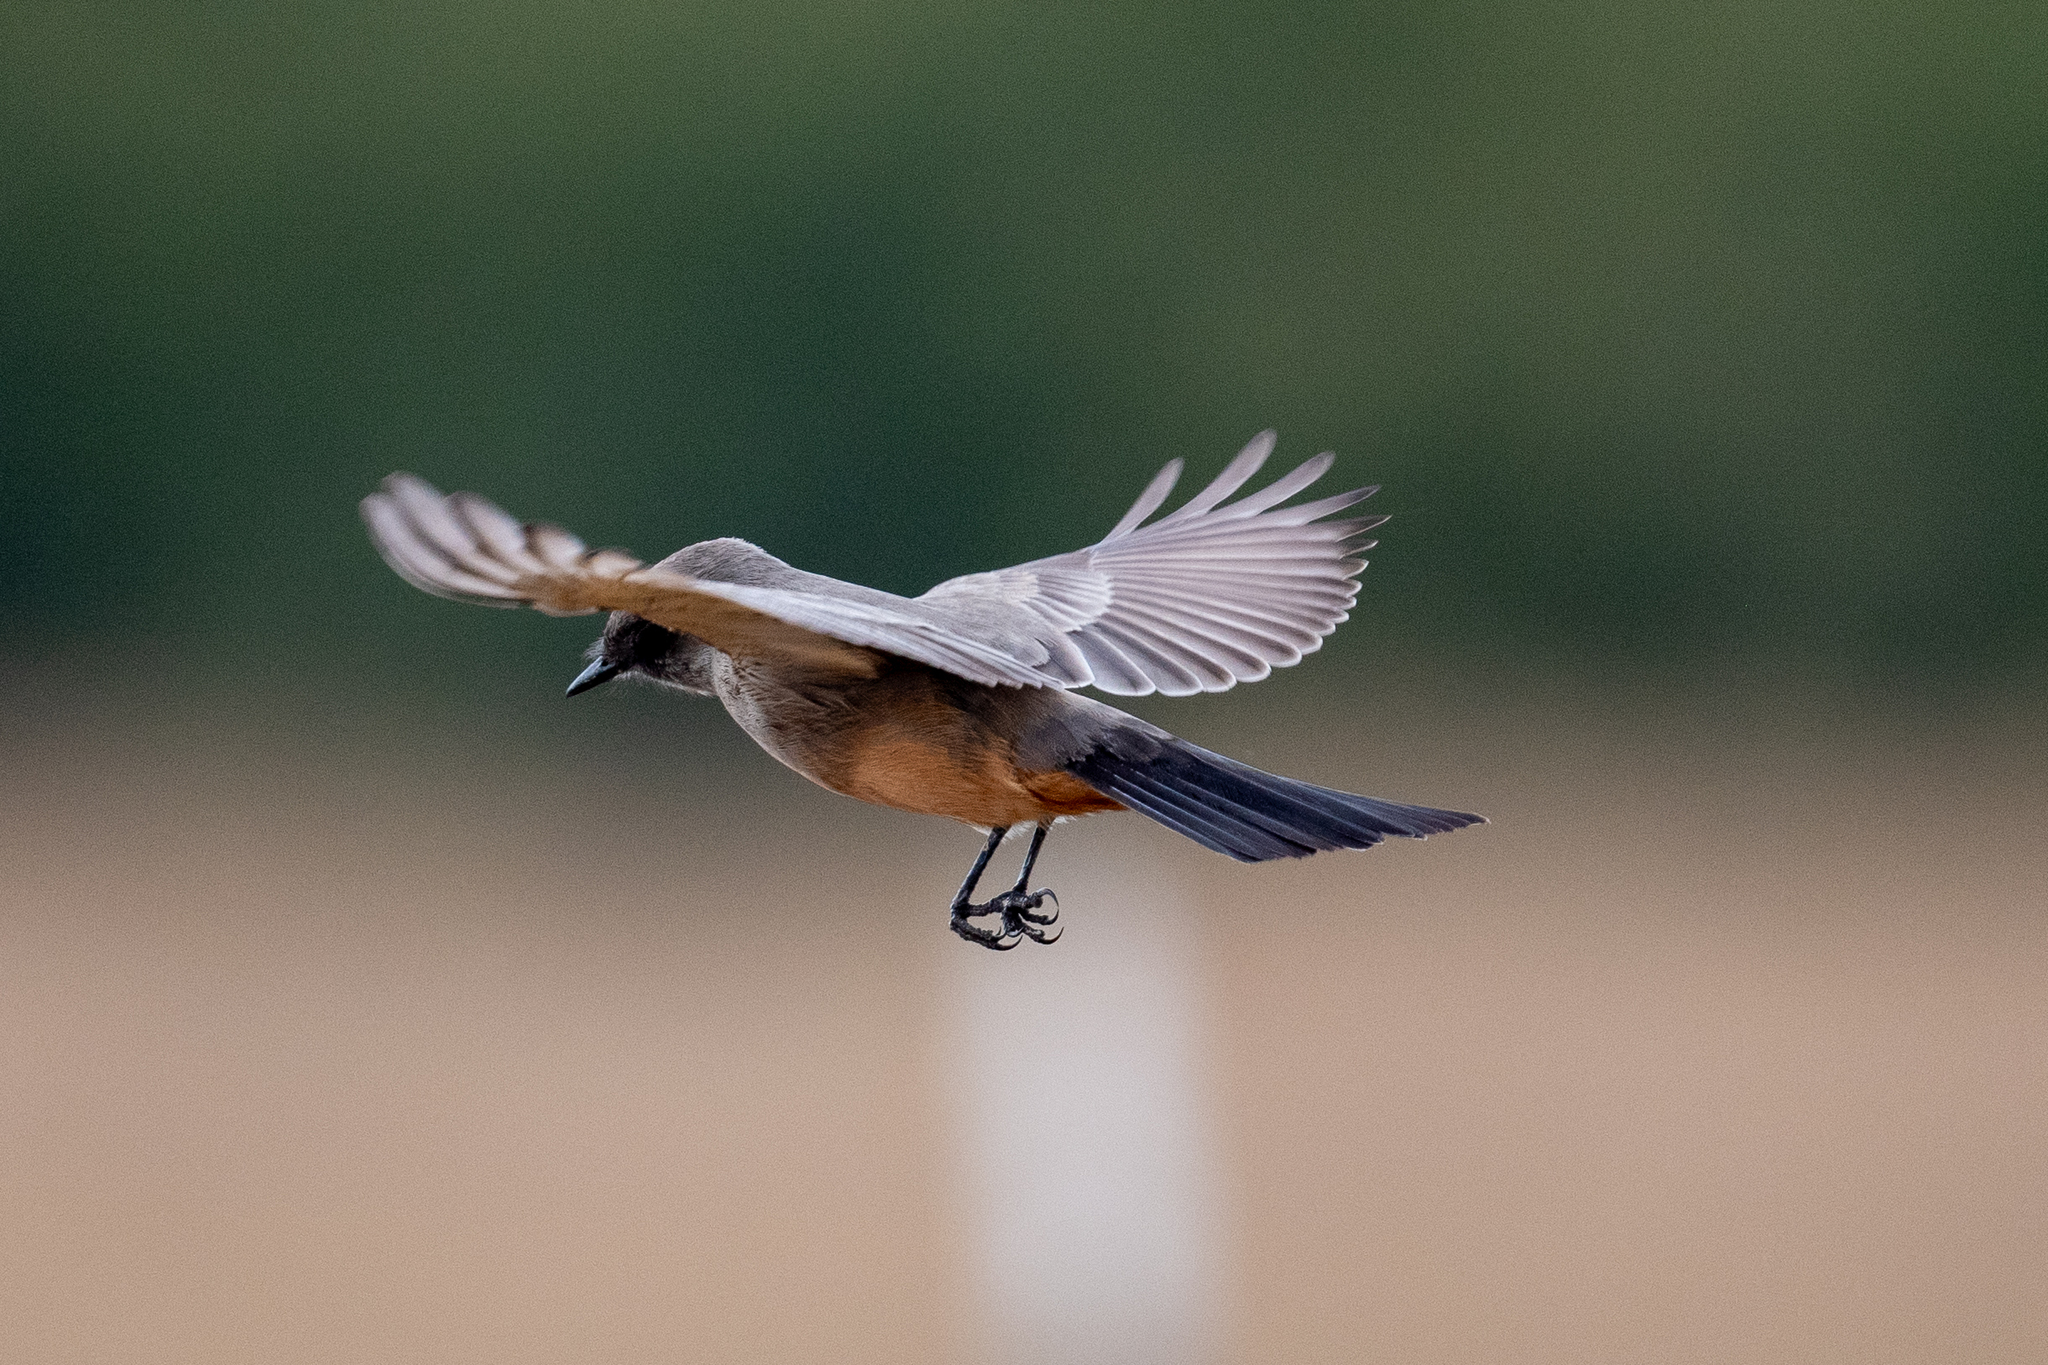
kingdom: Animalia
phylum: Chordata
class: Aves
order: Passeriformes
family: Tyrannidae
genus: Sayornis
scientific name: Sayornis saya
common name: Say's phoebe
